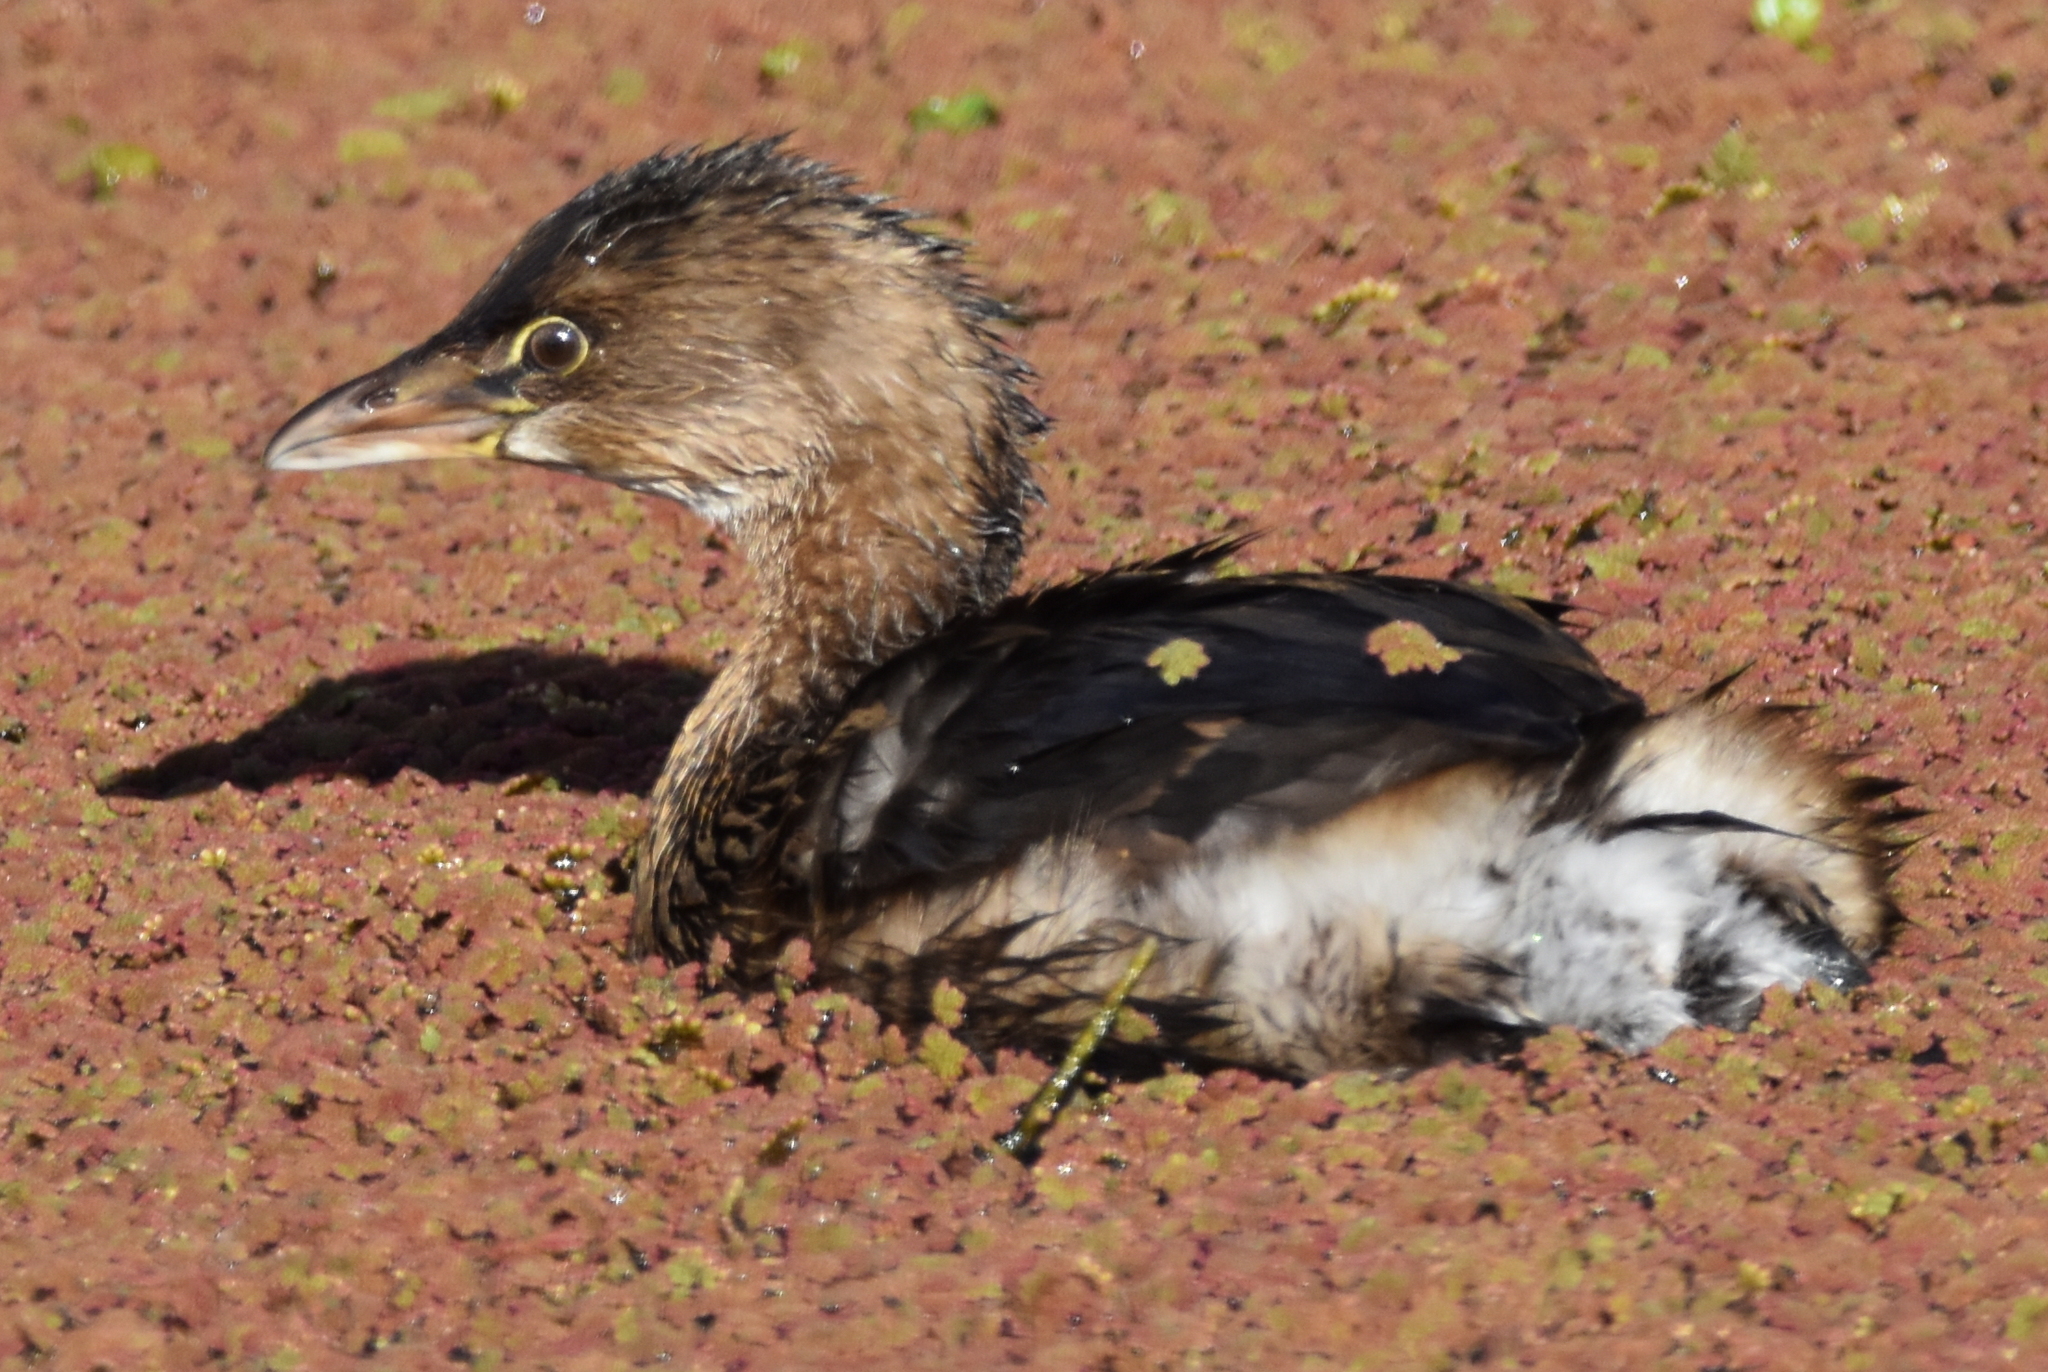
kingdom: Animalia
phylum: Chordata
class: Aves
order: Podicipediformes
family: Podicipedidae
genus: Podilymbus
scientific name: Podilymbus podiceps
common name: Pied-billed grebe
